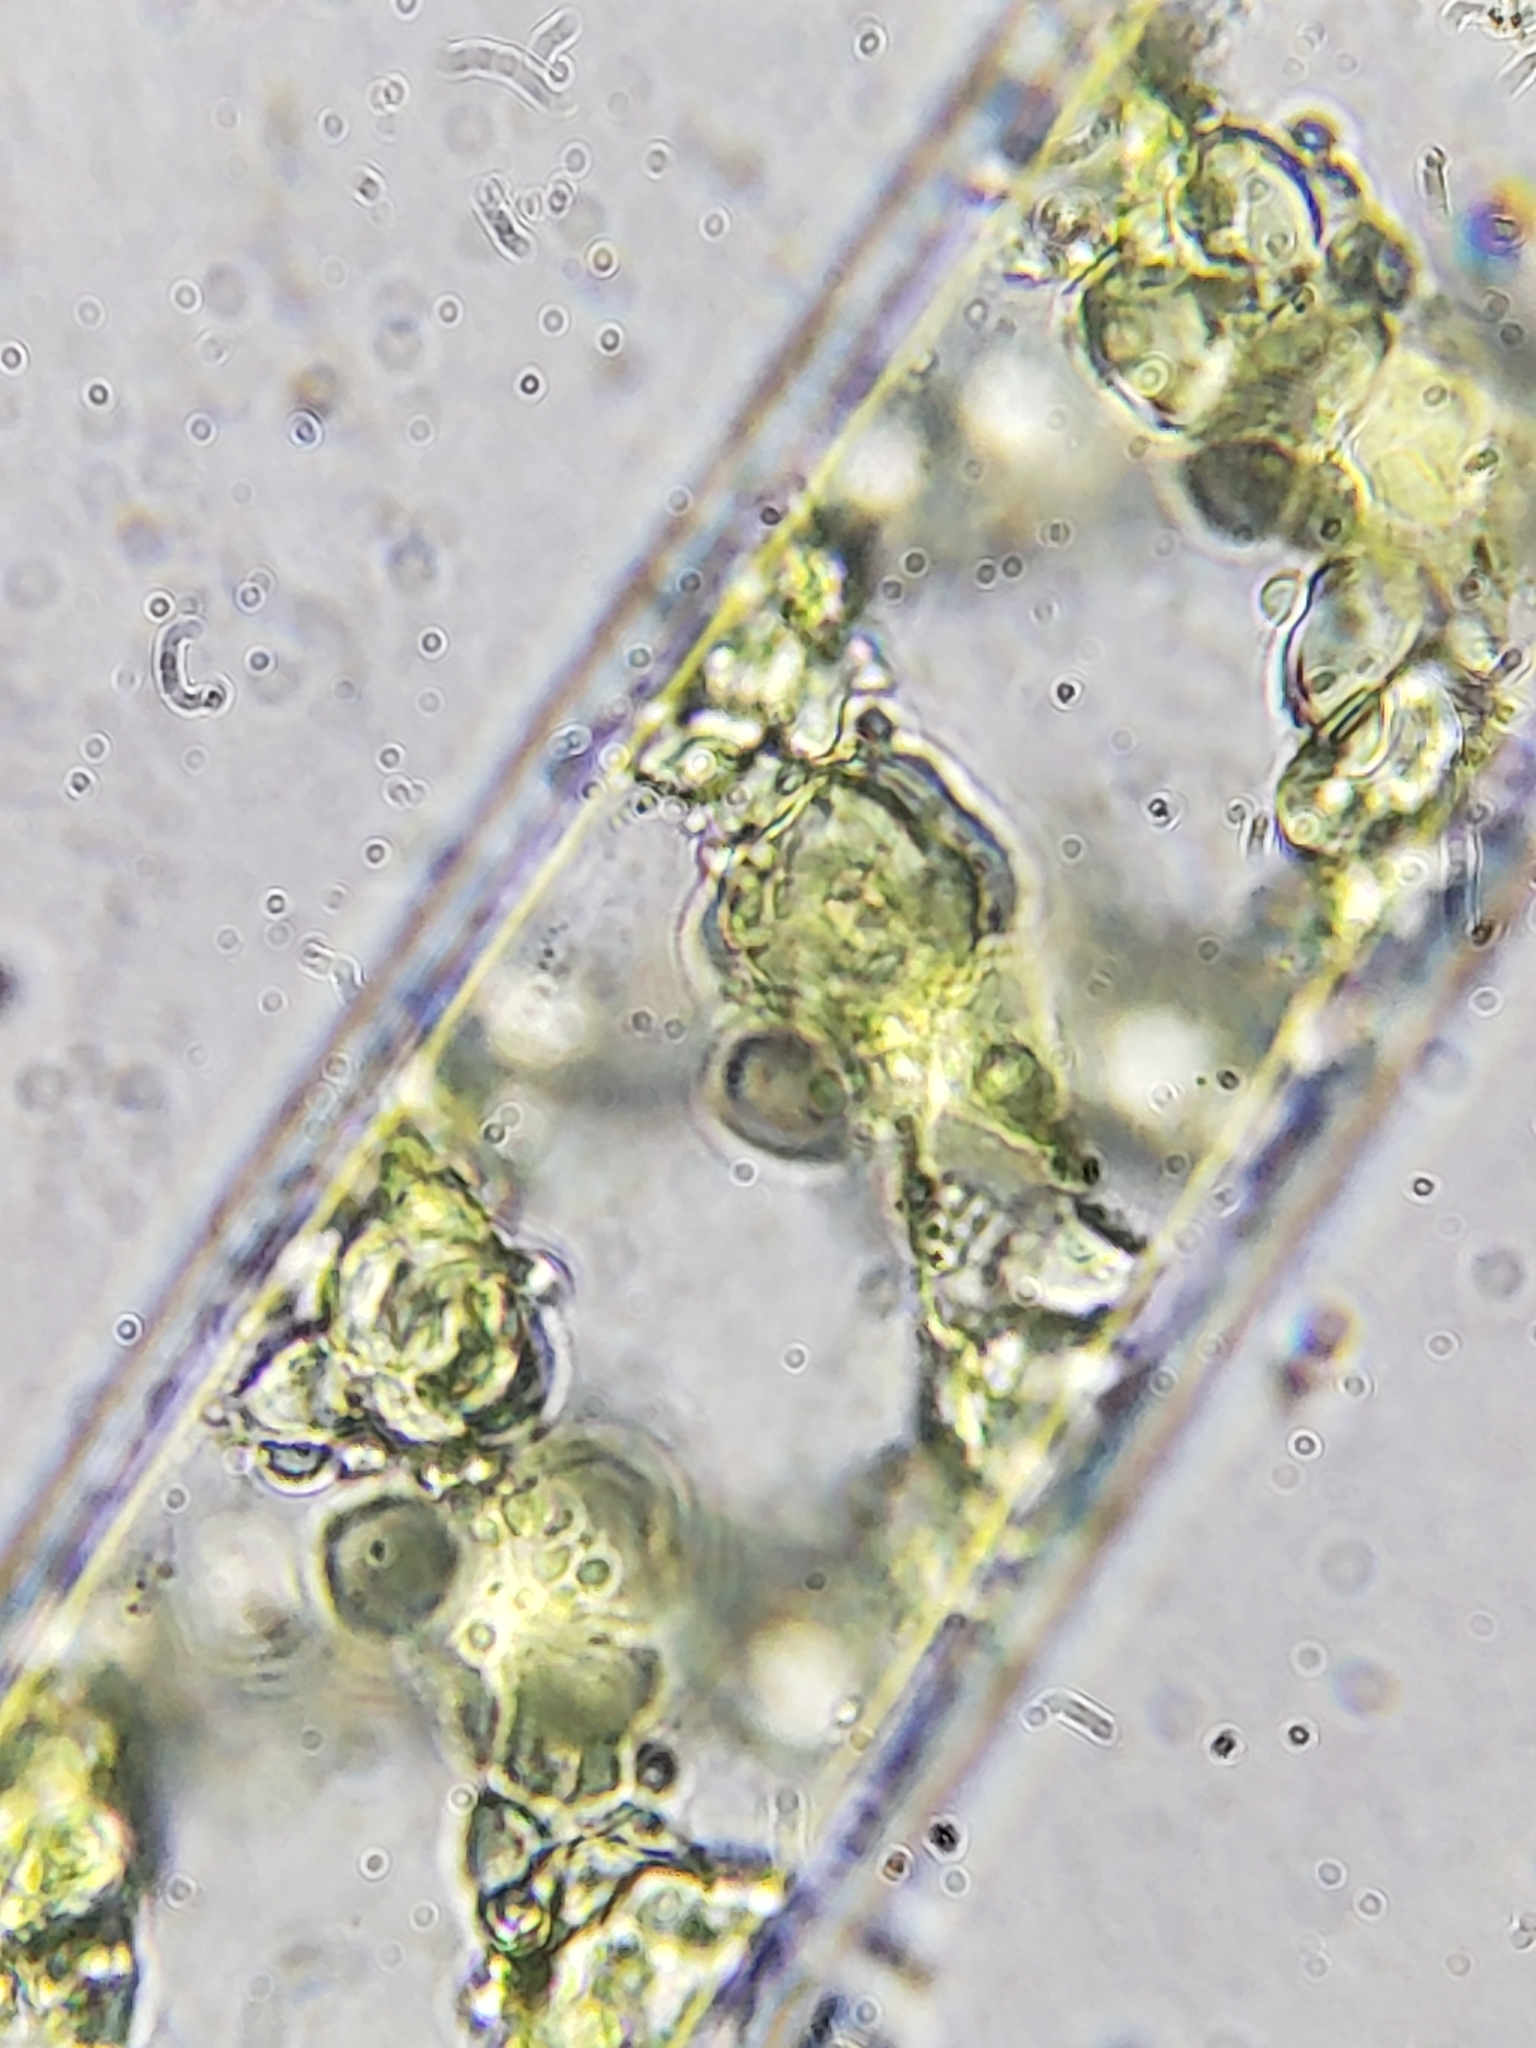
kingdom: Plantae
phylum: Charophyta
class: Zygnematophyceae
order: Zygnematales
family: Zygnemataceae
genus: Spirogyra
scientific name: Spirogyra
